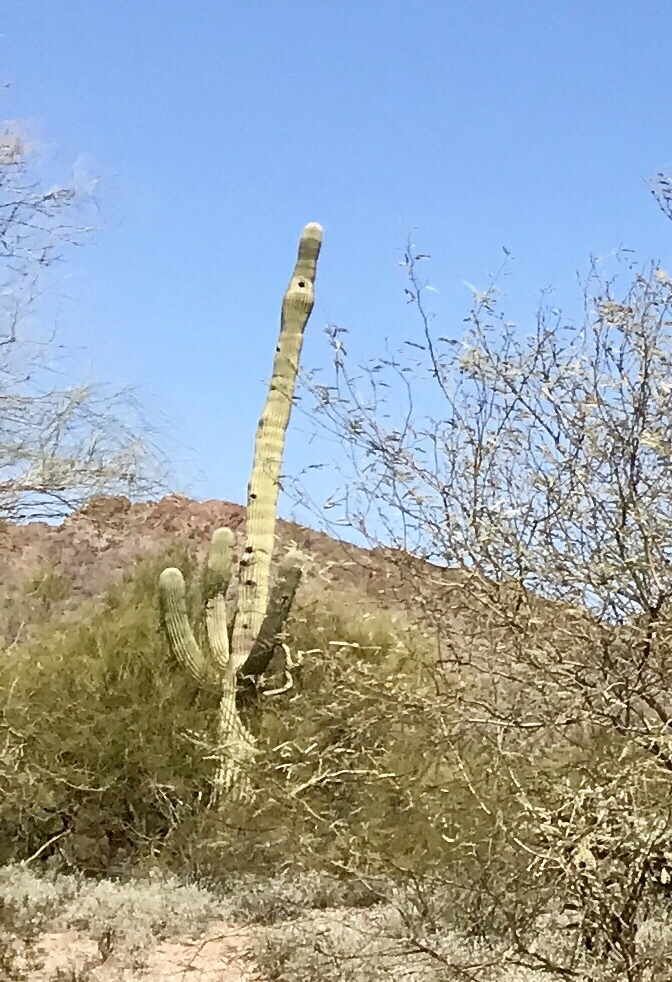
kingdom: Plantae
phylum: Tracheophyta
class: Magnoliopsida
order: Caryophyllales
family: Cactaceae
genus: Carnegiea
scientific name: Carnegiea gigantea
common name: Saguaro
